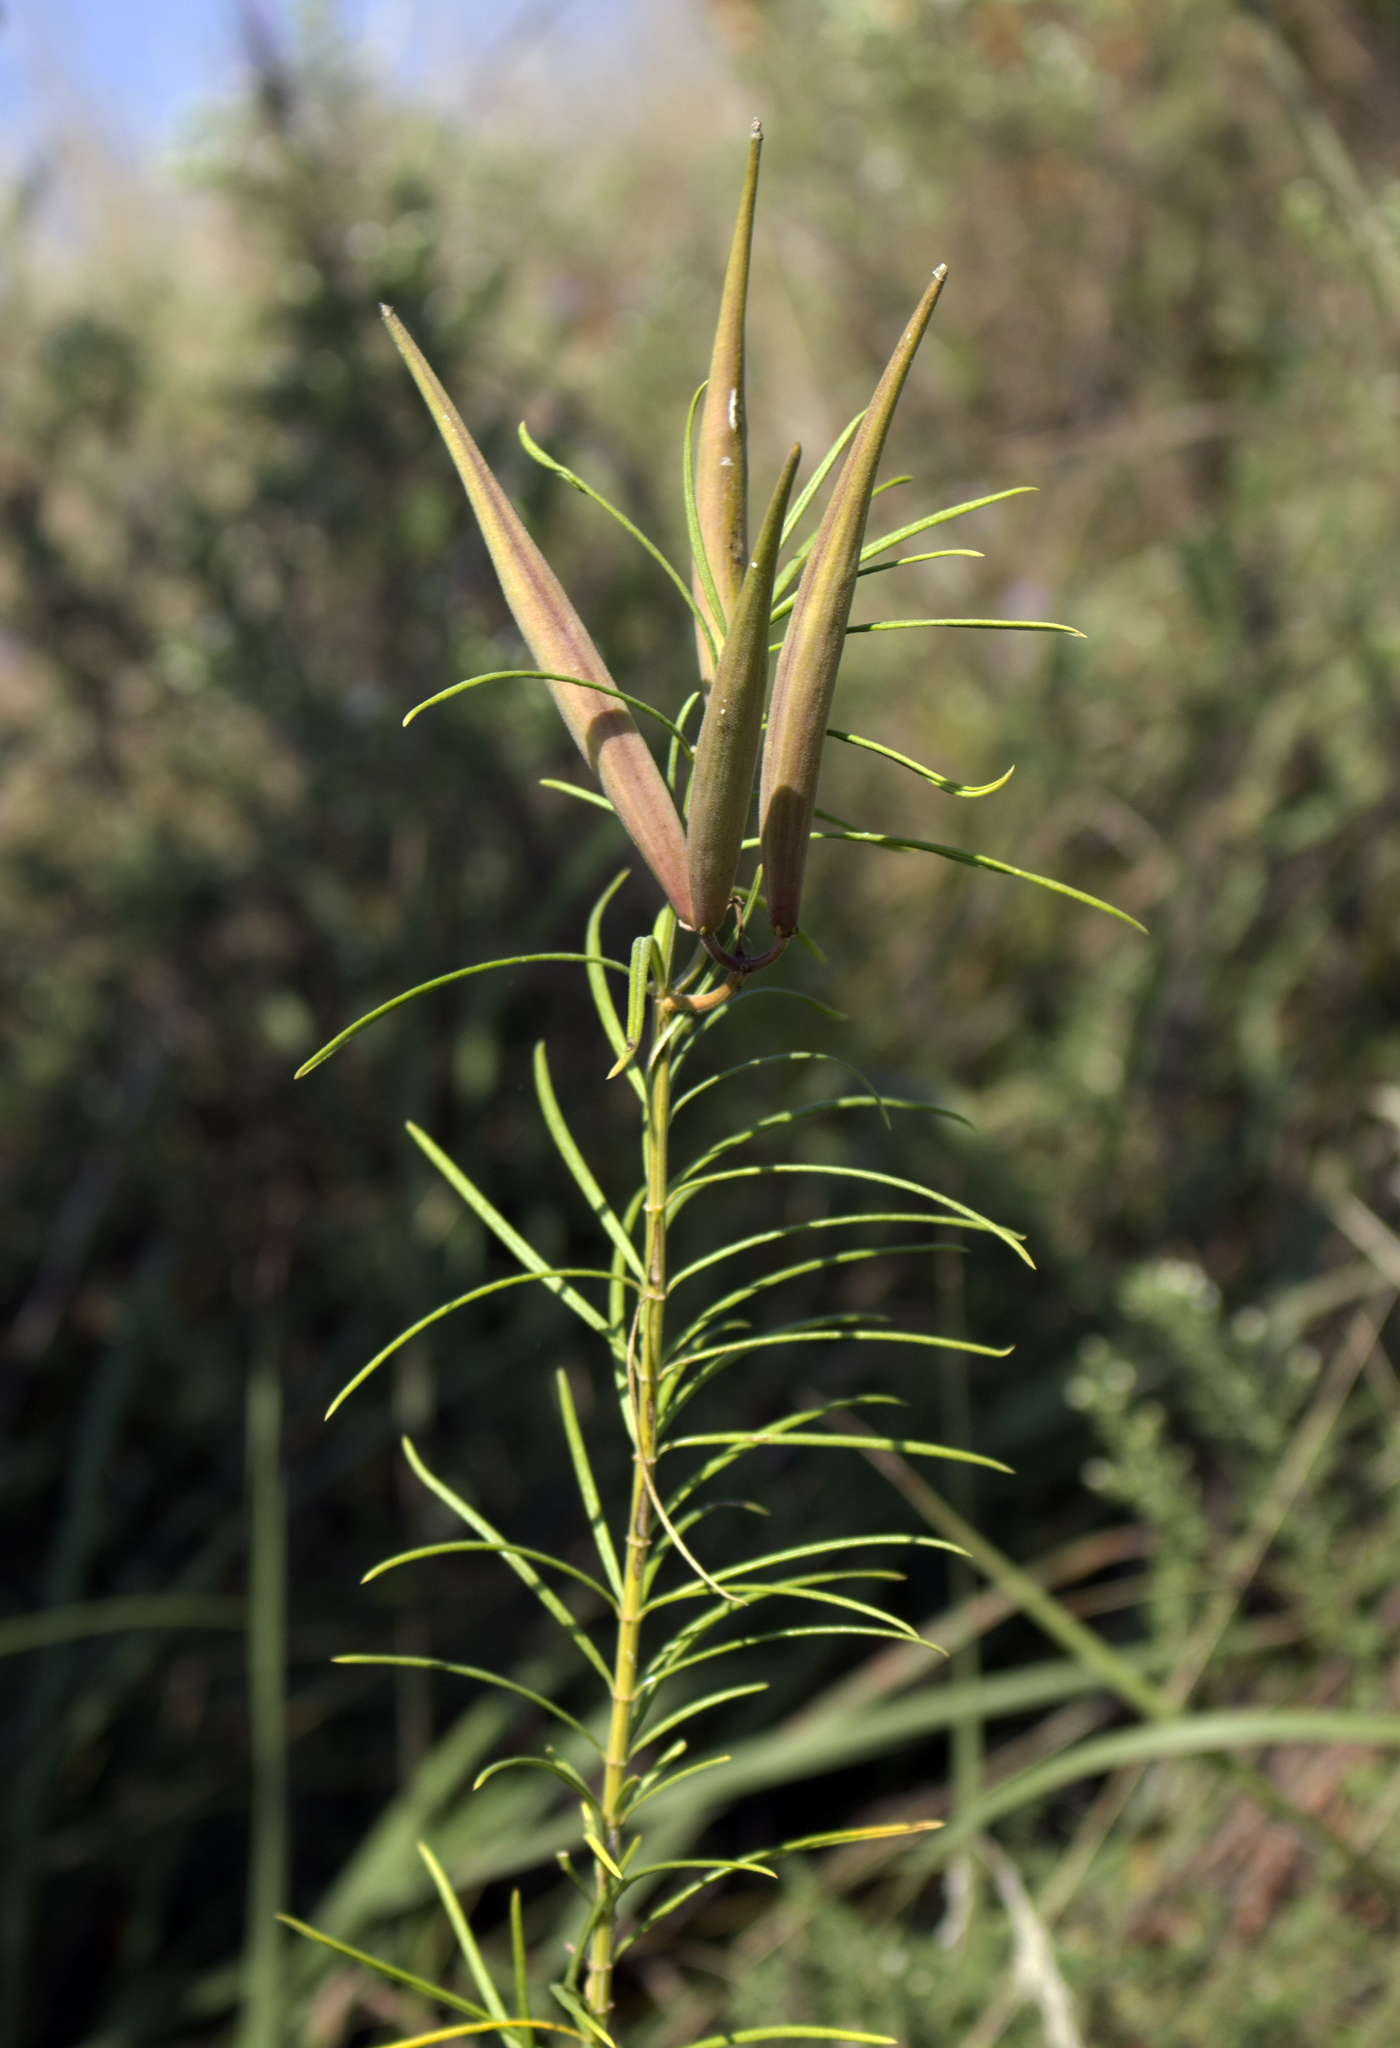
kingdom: Plantae
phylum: Tracheophyta
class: Magnoliopsida
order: Gentianales
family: Apocynaceae
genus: Asclepias
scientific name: Asclepias verticillata
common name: Eastern whorled milkweed
